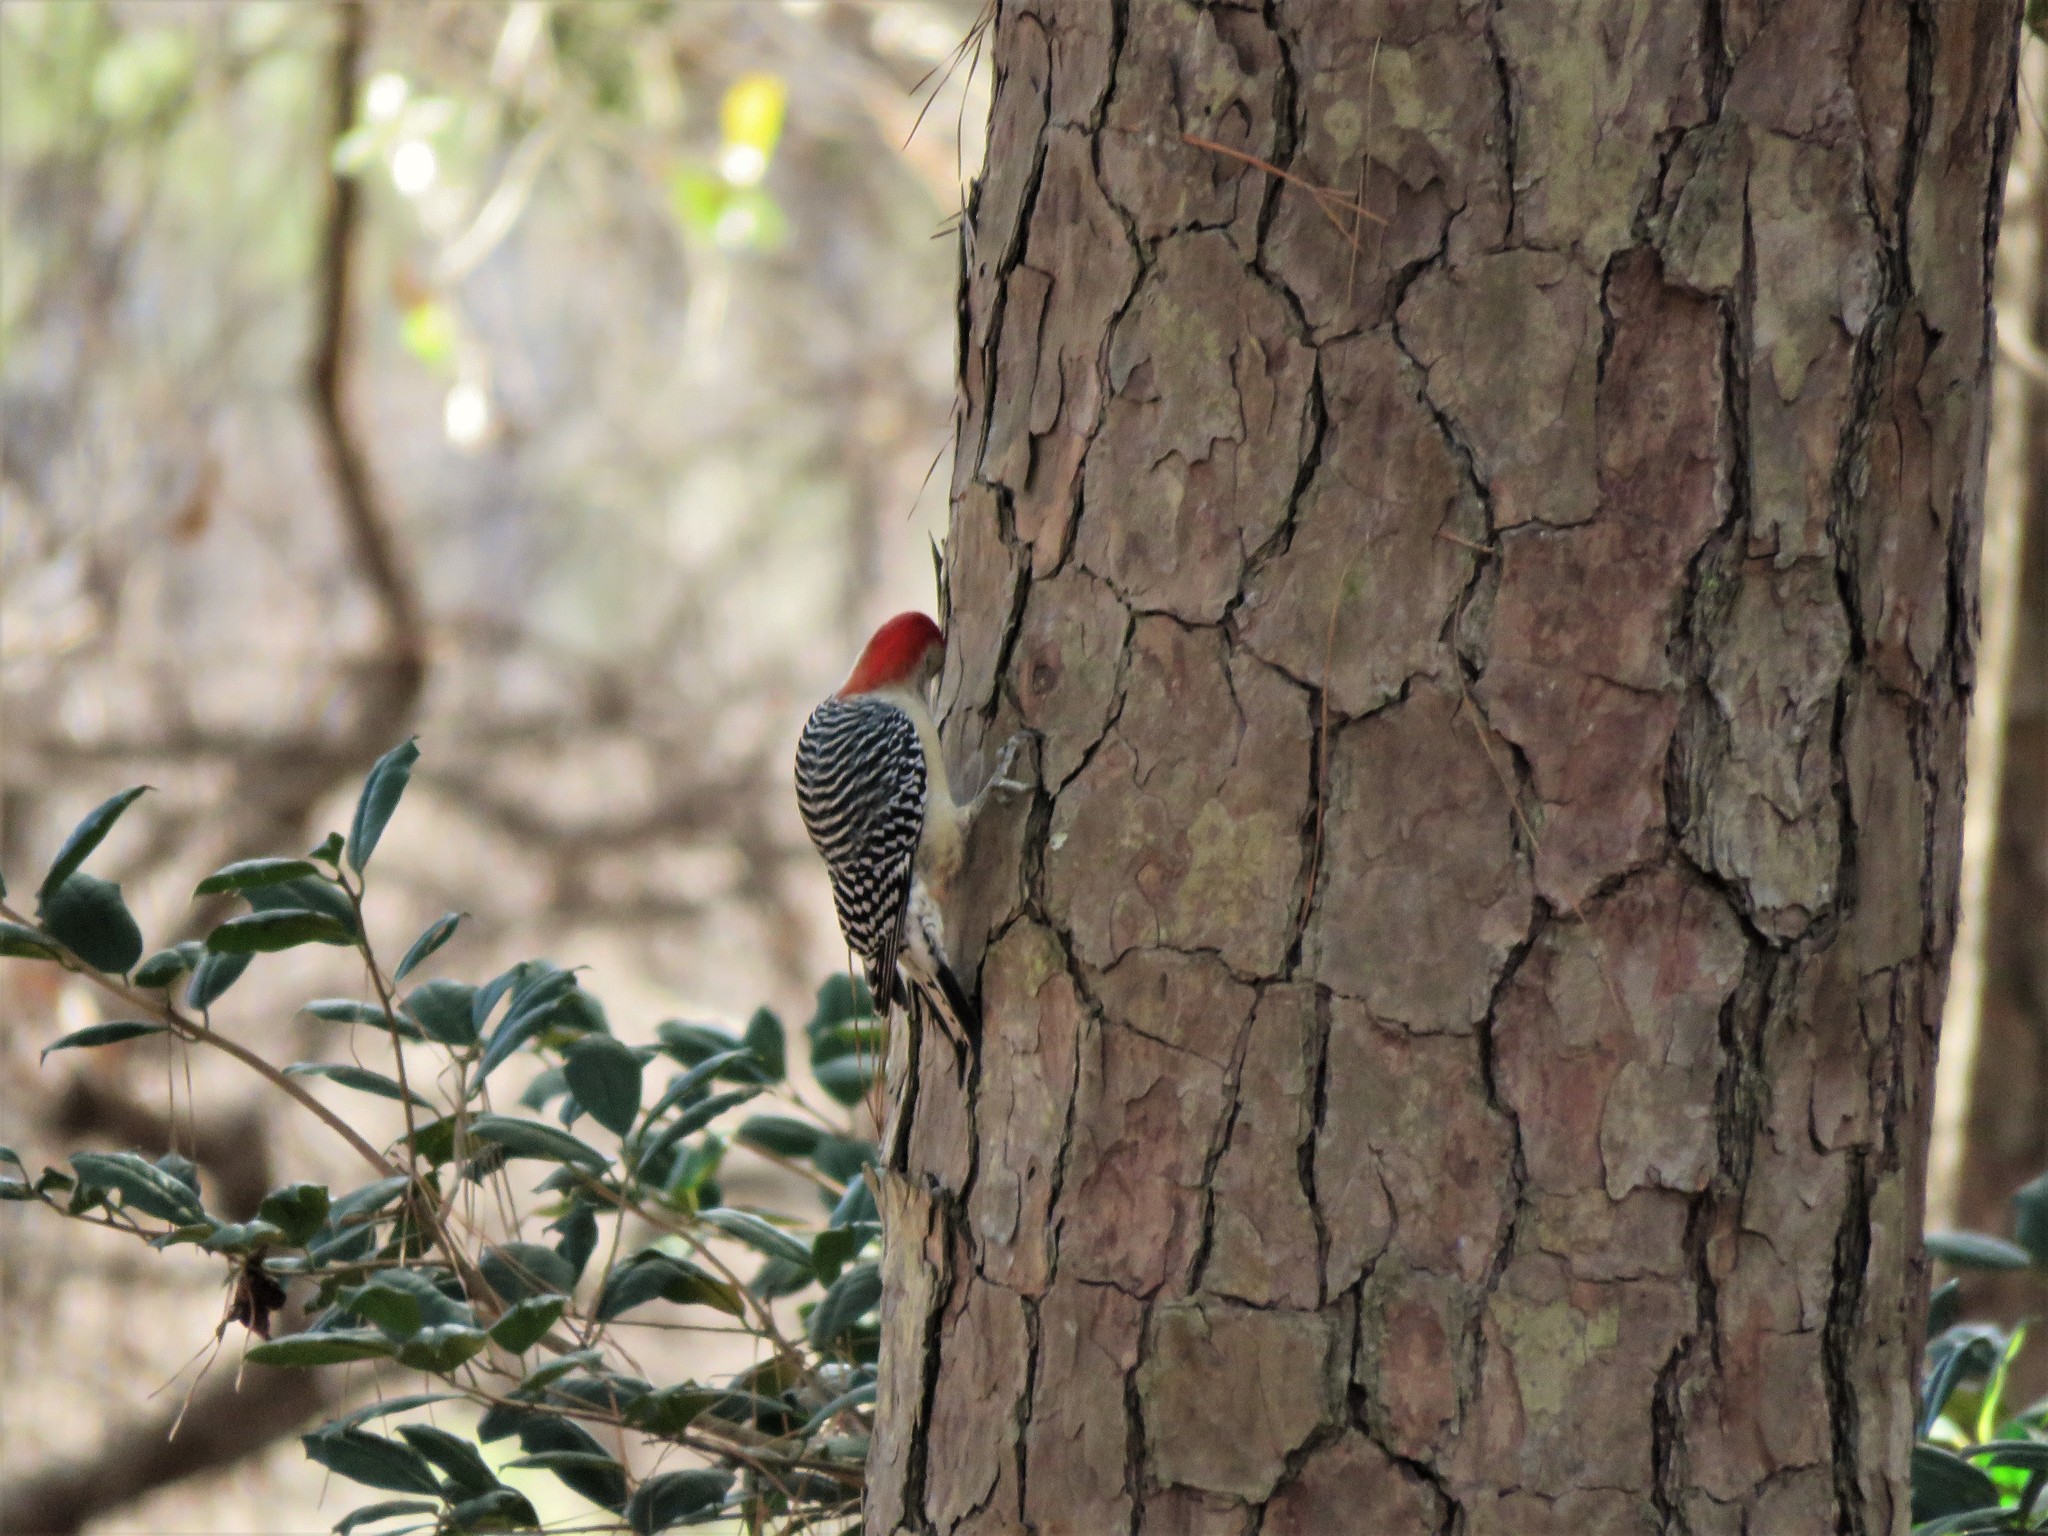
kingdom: Animalia
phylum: Chordata
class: Aves
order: Piciformes
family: Picidae
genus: Melanerpes
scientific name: Melanerpes carolinus
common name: Red-bellied woodpecker
